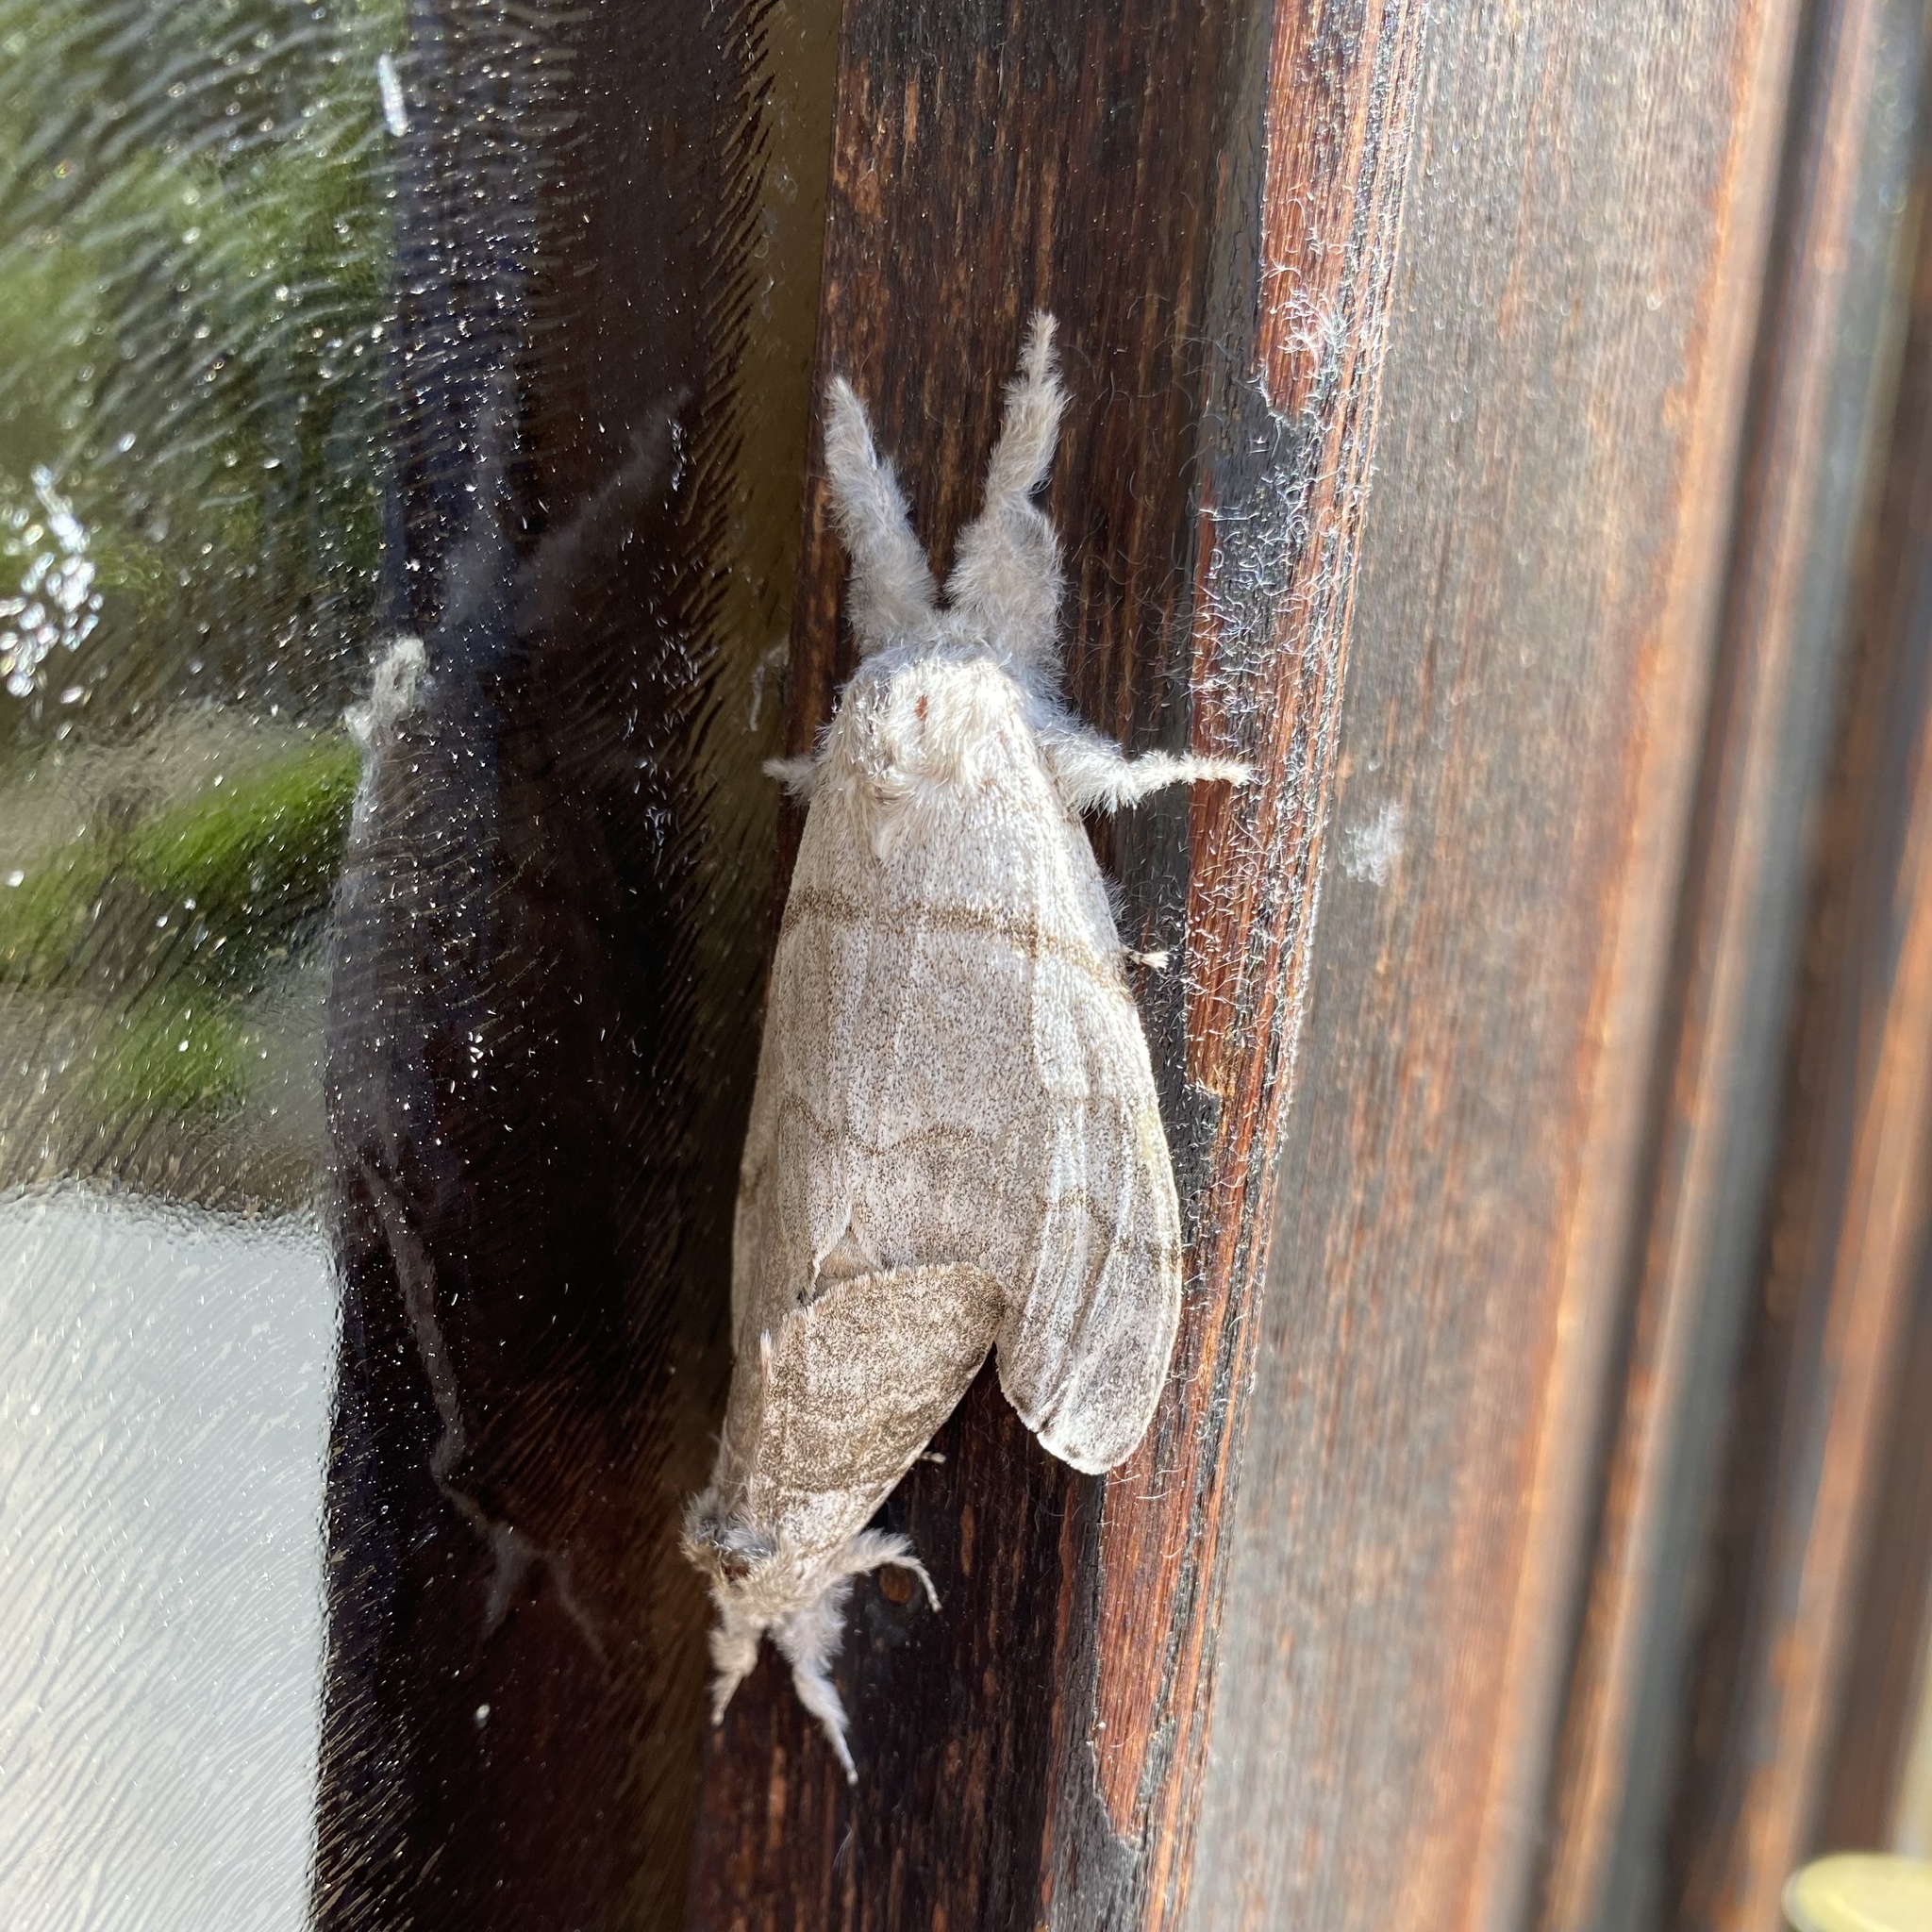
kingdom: Animalia
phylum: Arthropoda
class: Insecta
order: Lepidoptera
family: Erebidae
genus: Calliteara
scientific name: Calliteara pudibunda
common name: Pale tussock
